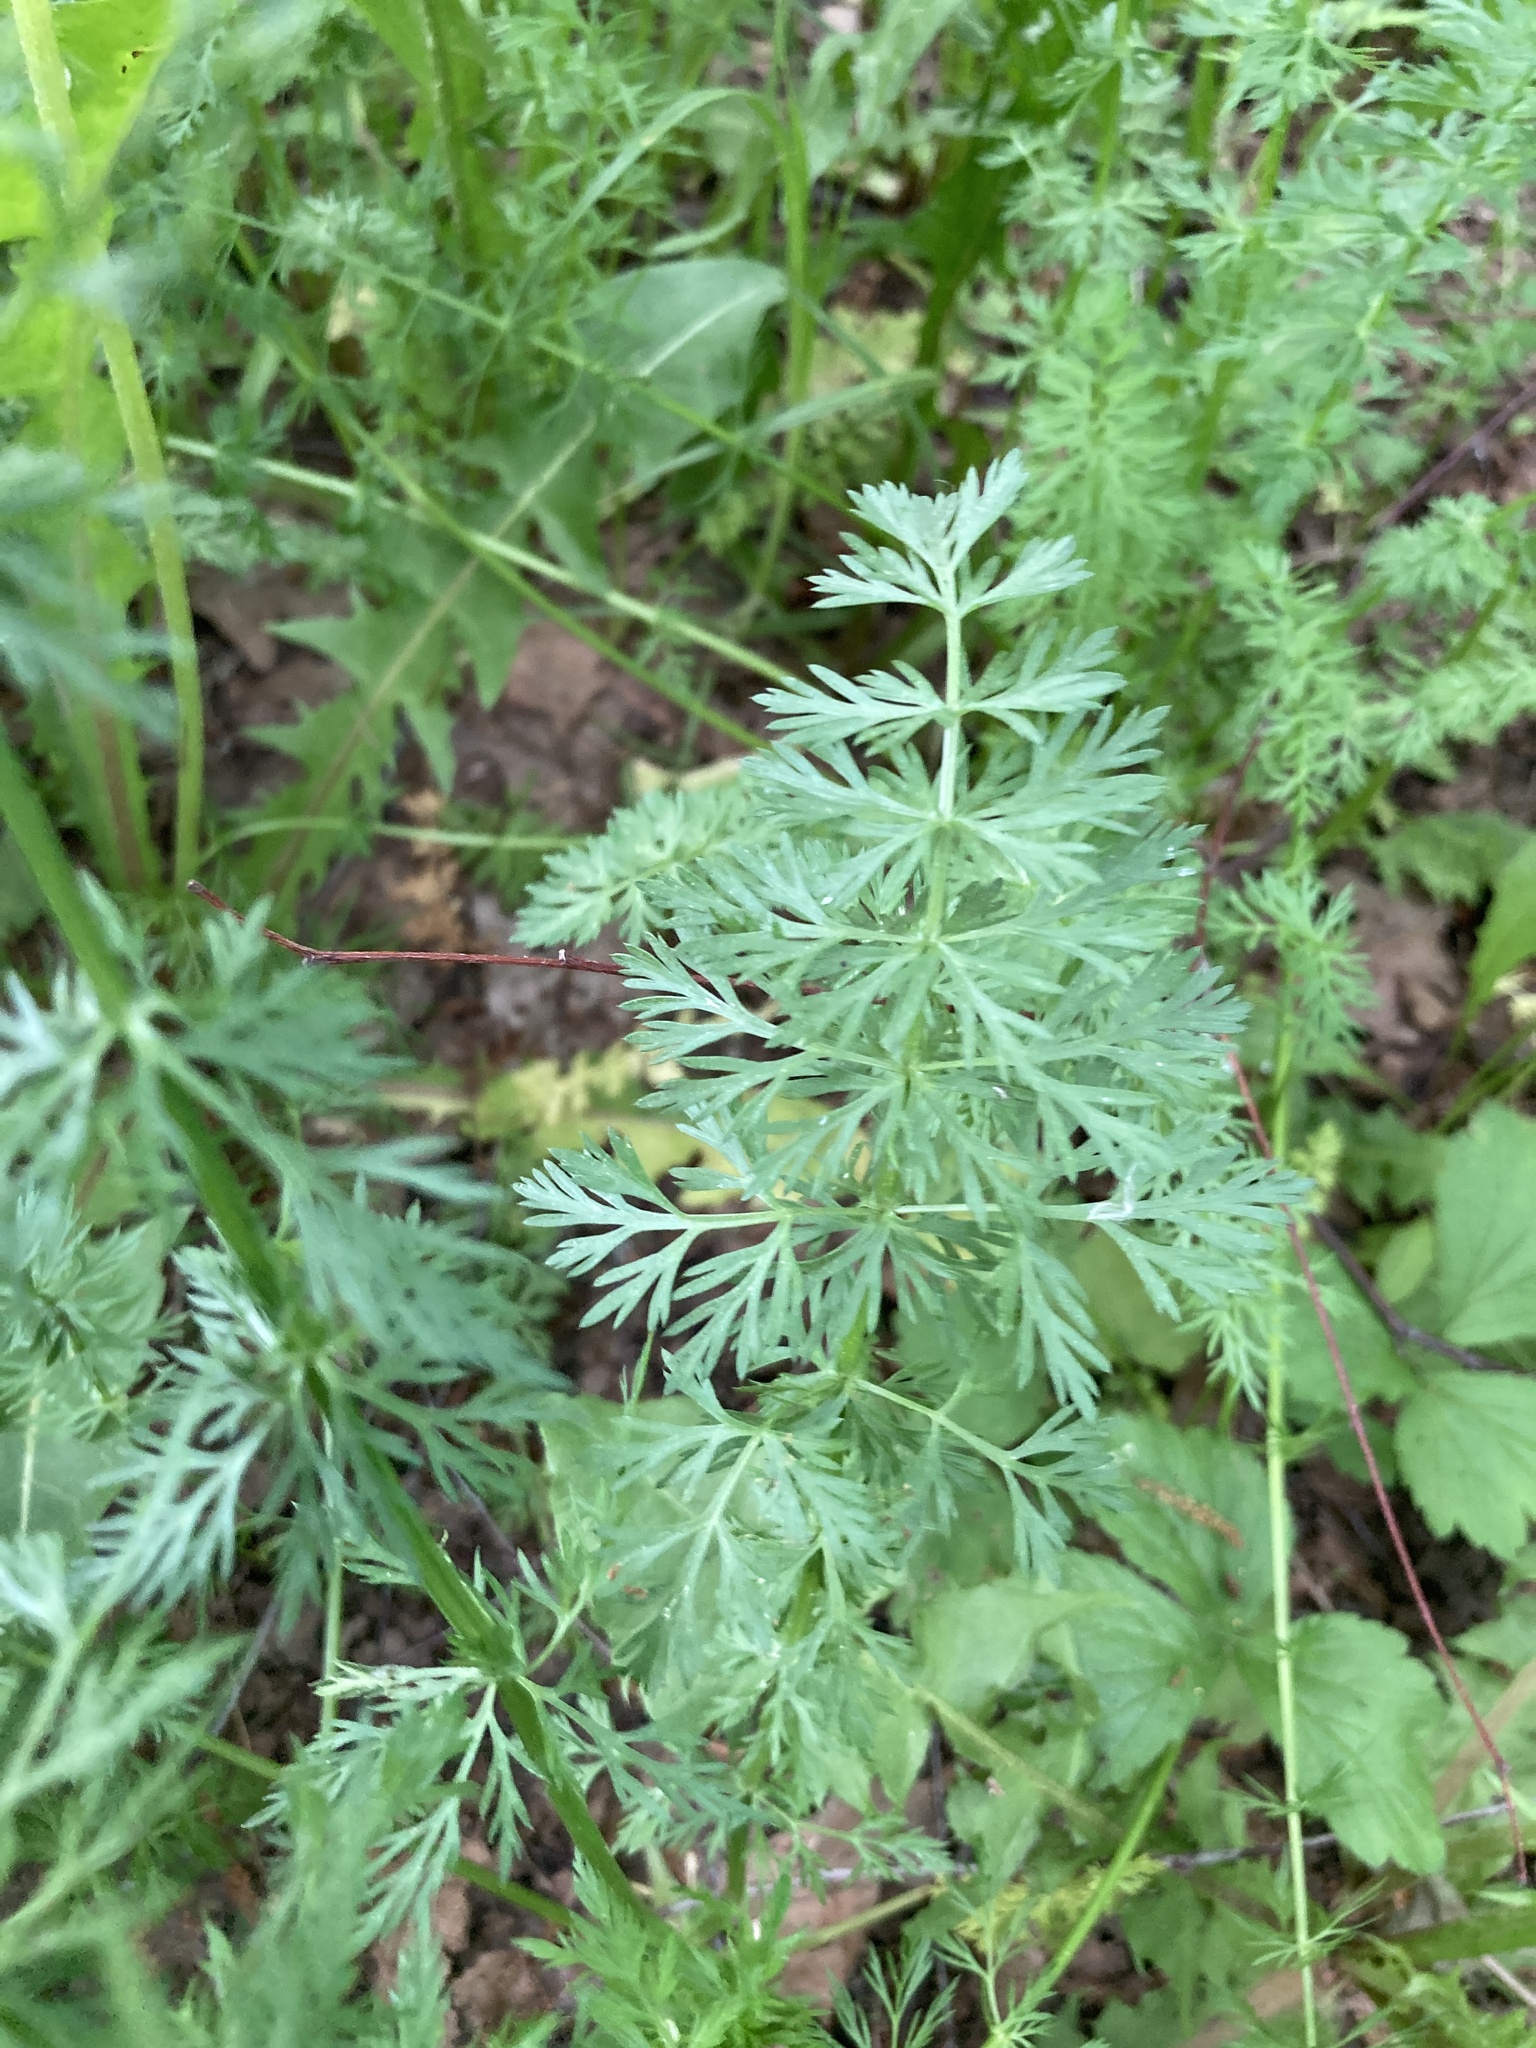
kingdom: Plantae
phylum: Tracheophyta
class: Magnoliopsida
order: Apiales
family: Apiaceae
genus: Carum
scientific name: Carum carvi
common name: Caraway
